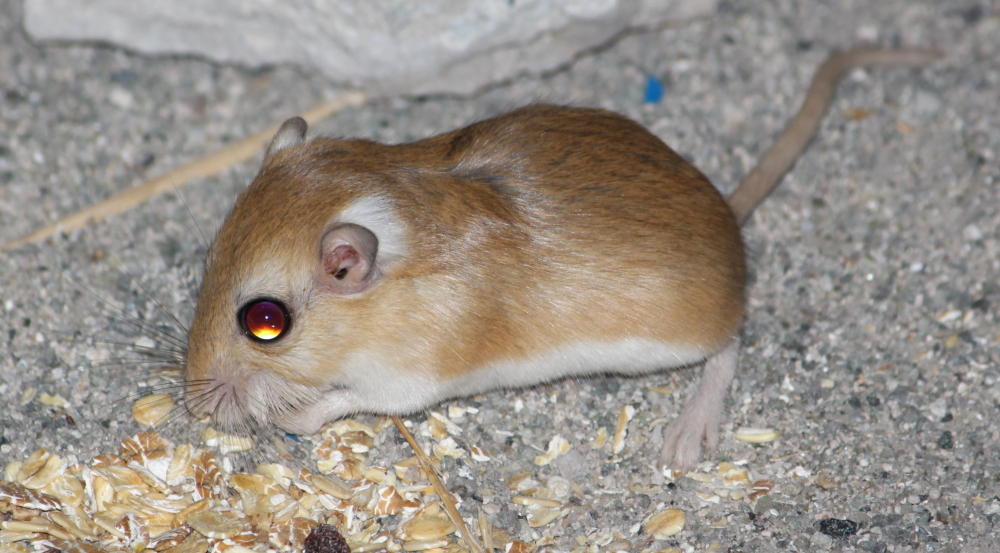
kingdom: Animalia
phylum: Chordata
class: Mammalia
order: Rodentia
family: Muridae
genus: Desmodillus
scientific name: Desmodillus auricularis
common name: Cape short-tailed gerbil
